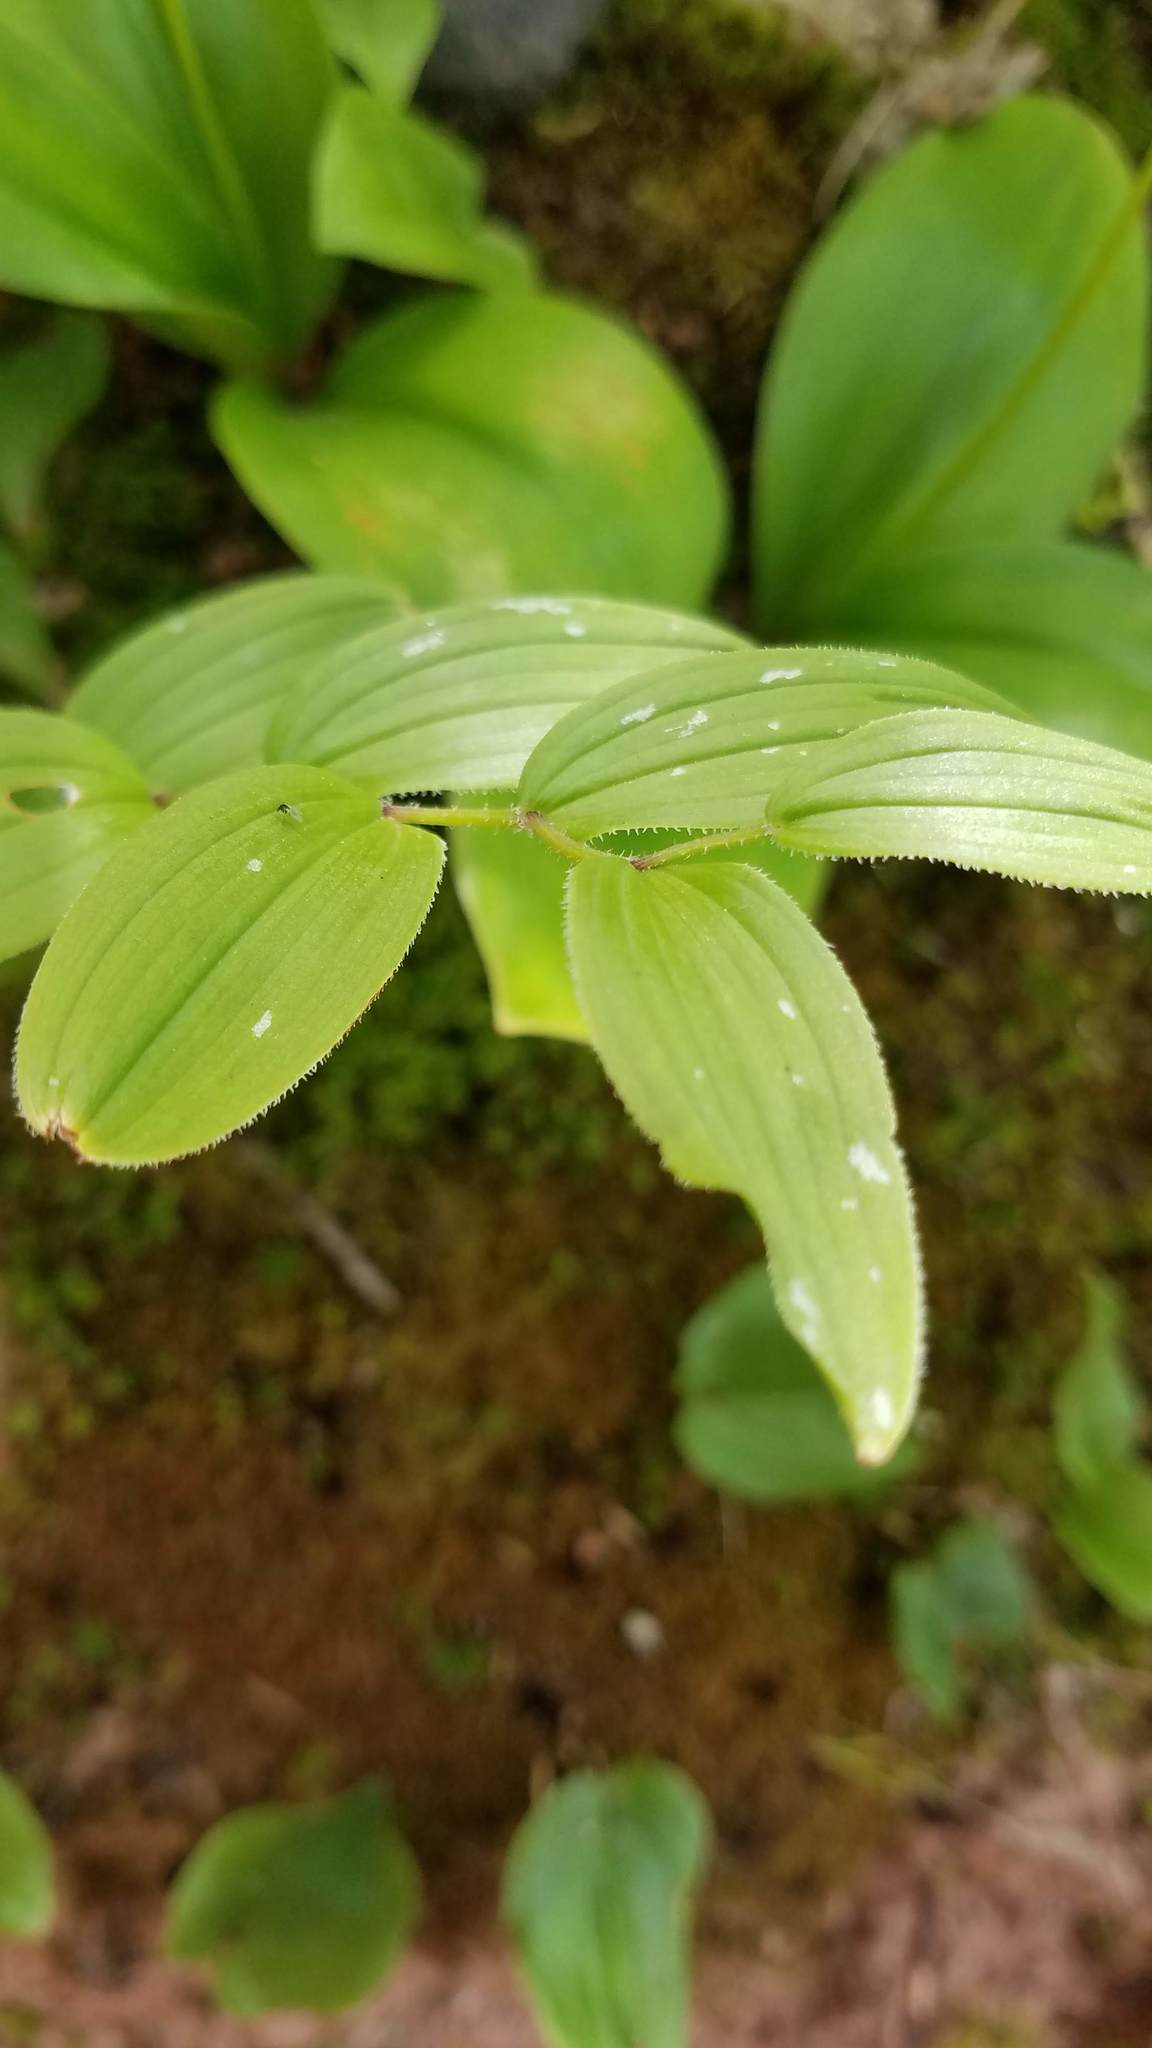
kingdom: Plantae
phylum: Tracheophyta
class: Liliopsida
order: Liliales
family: Liliaceae
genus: Streptopus
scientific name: Streptopus lanceolatus
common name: Rose mandarin
